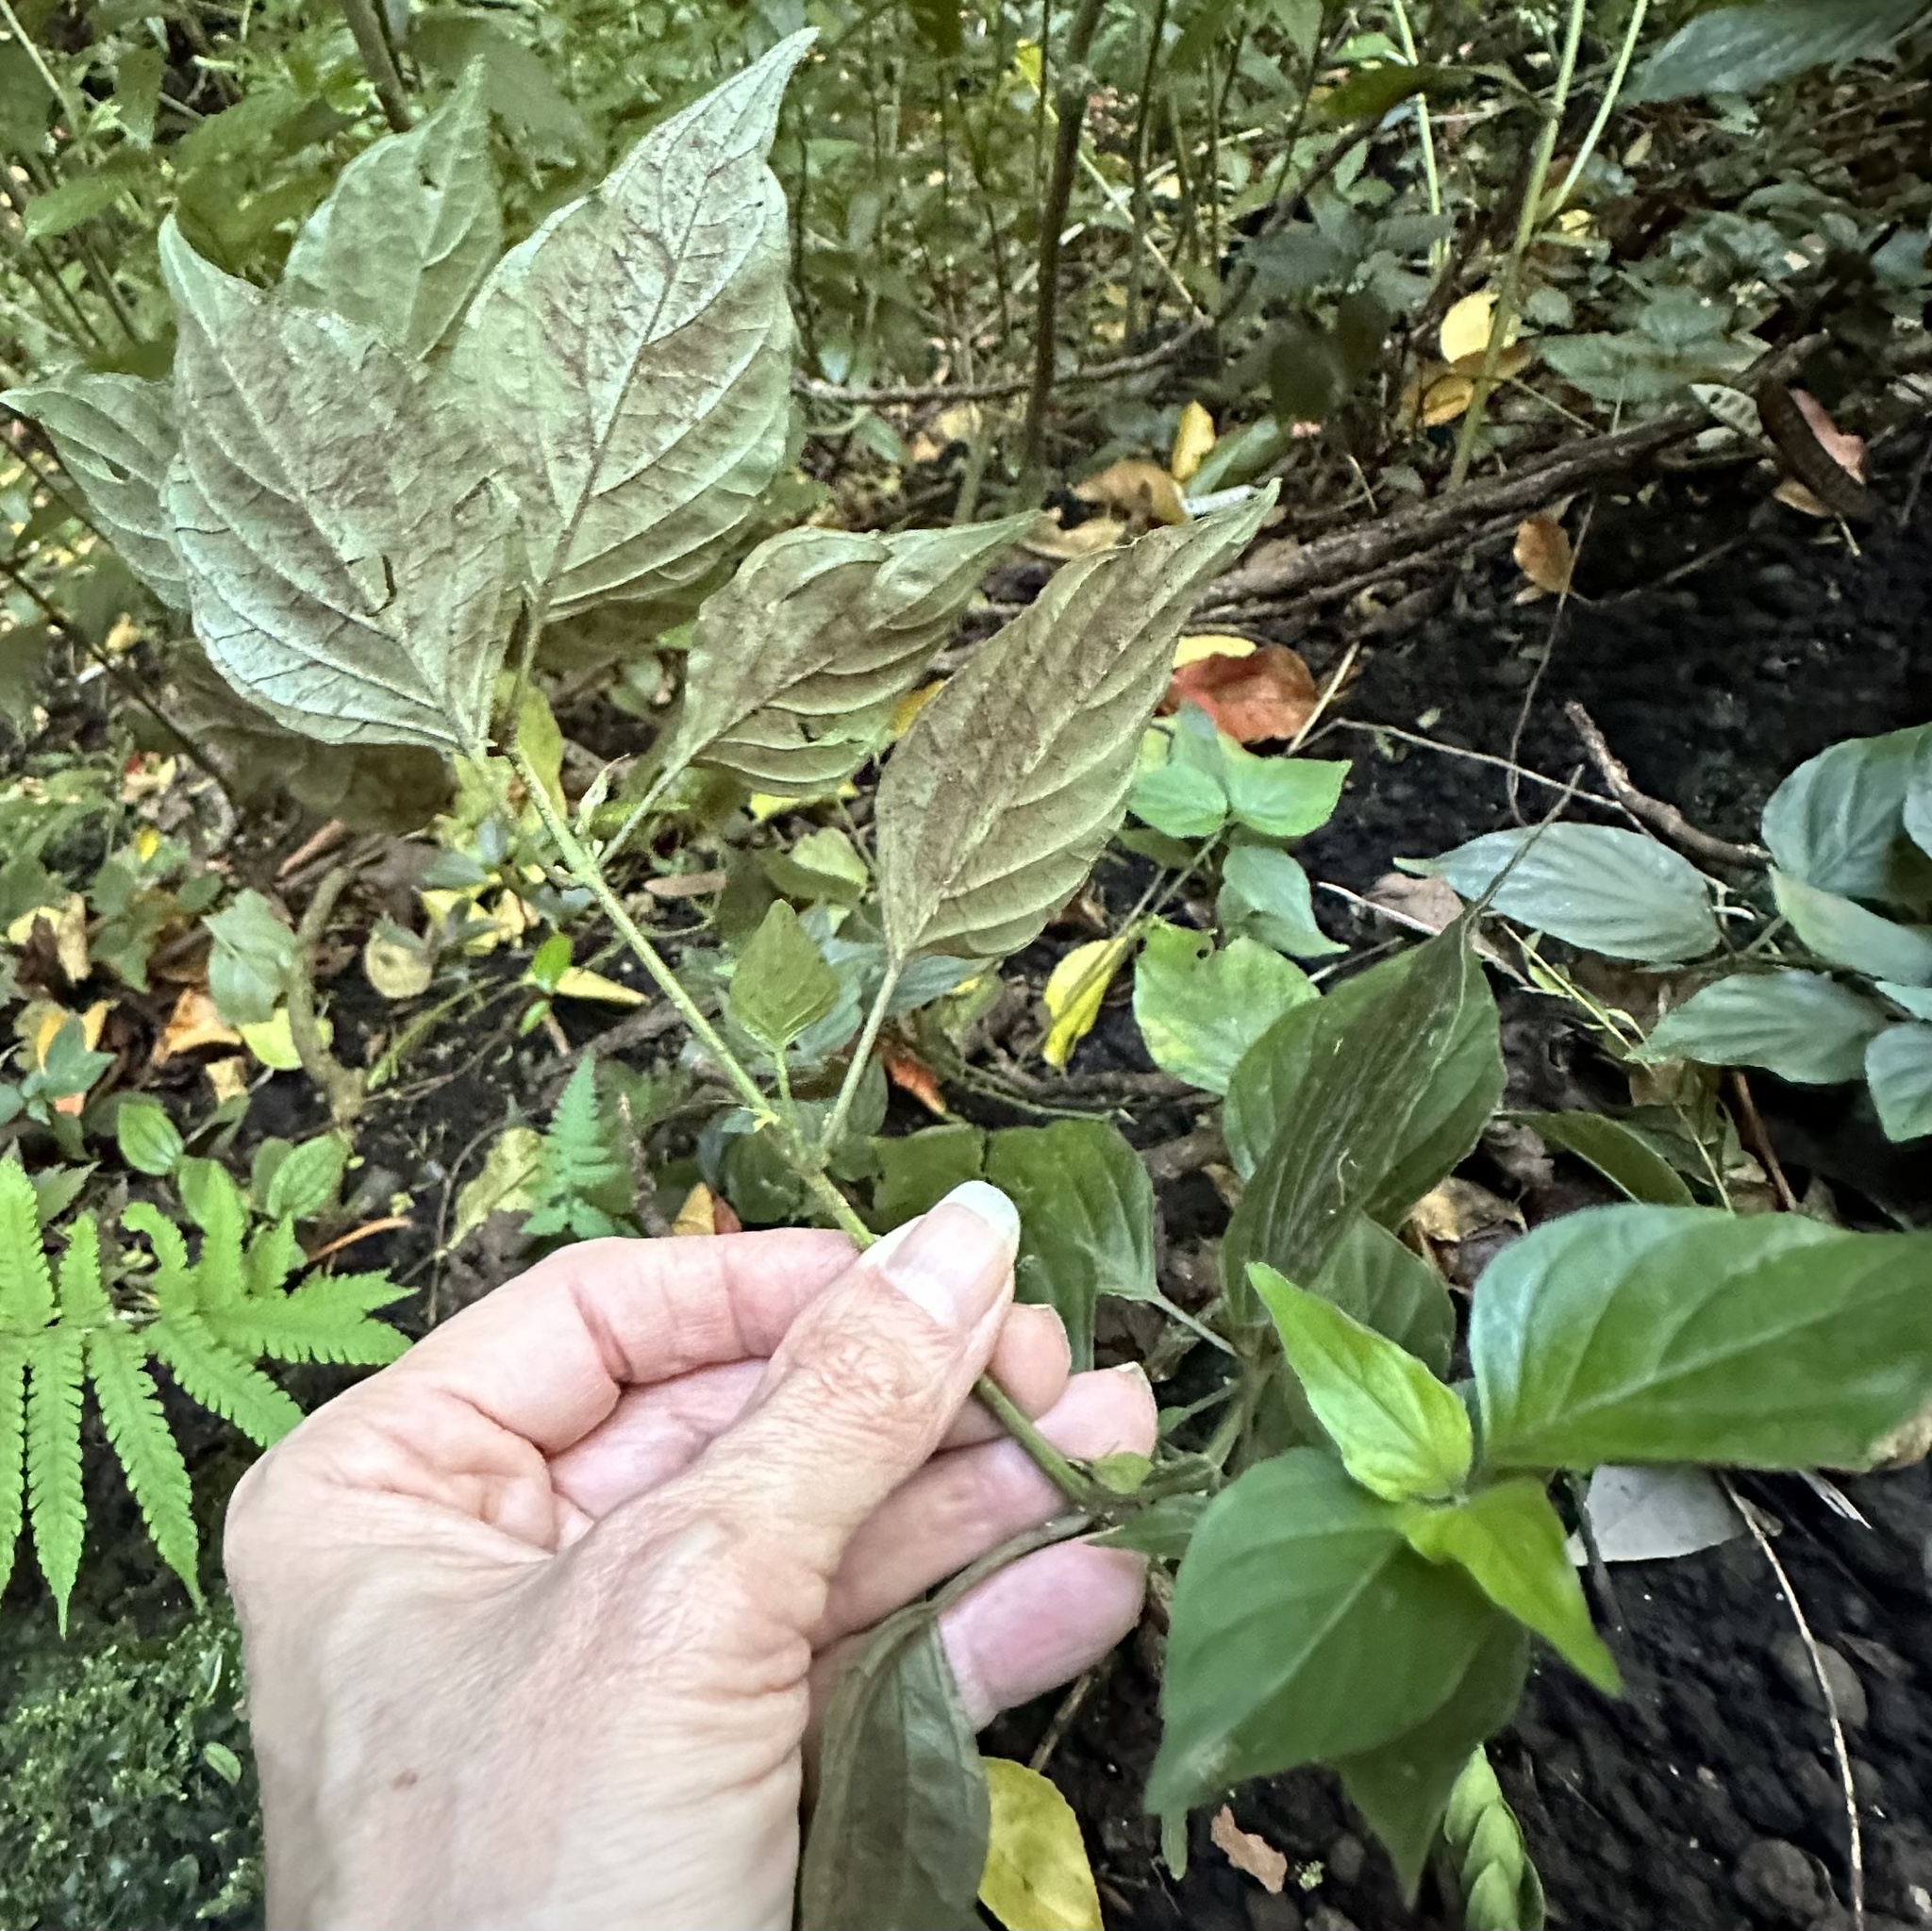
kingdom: Plantae
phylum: Tracheophyta
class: Magnoliopsida
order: Lamiales
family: Acanthaceae
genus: Dicliptera
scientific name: Dicliptera chinensis
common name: Chinese foldwing
